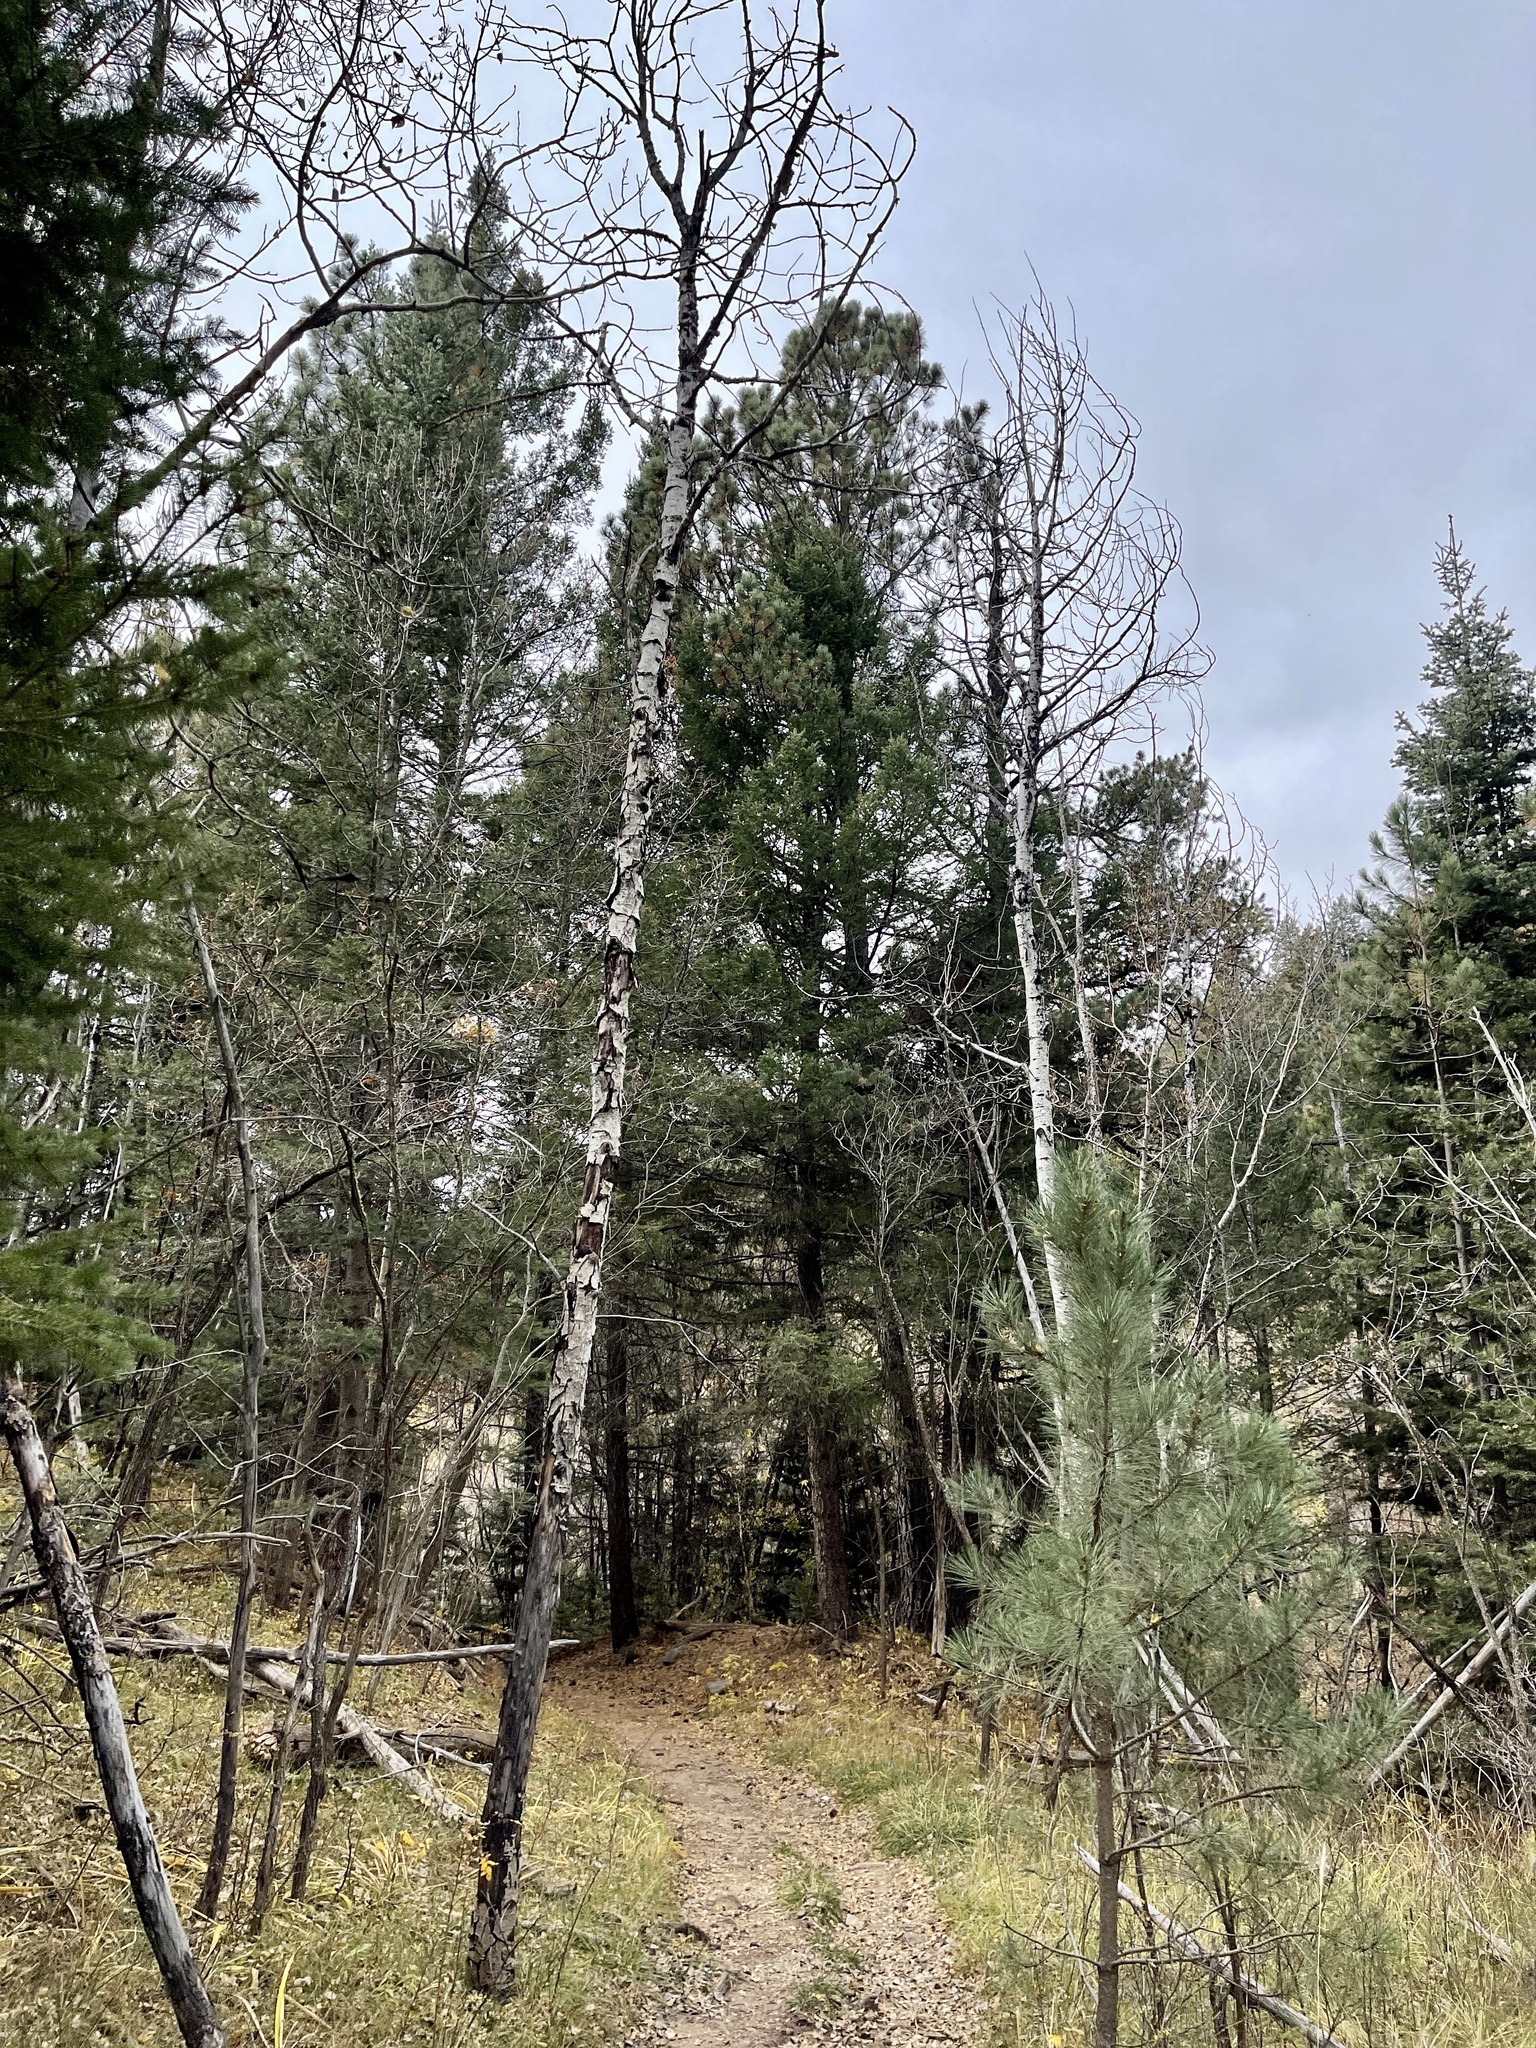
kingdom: Plantae
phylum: Tracheophyta
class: Magnoliopsida
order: Malpighiales
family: Salicaceae
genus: Populus
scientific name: Populus tremuloides
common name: Quaking aspen
